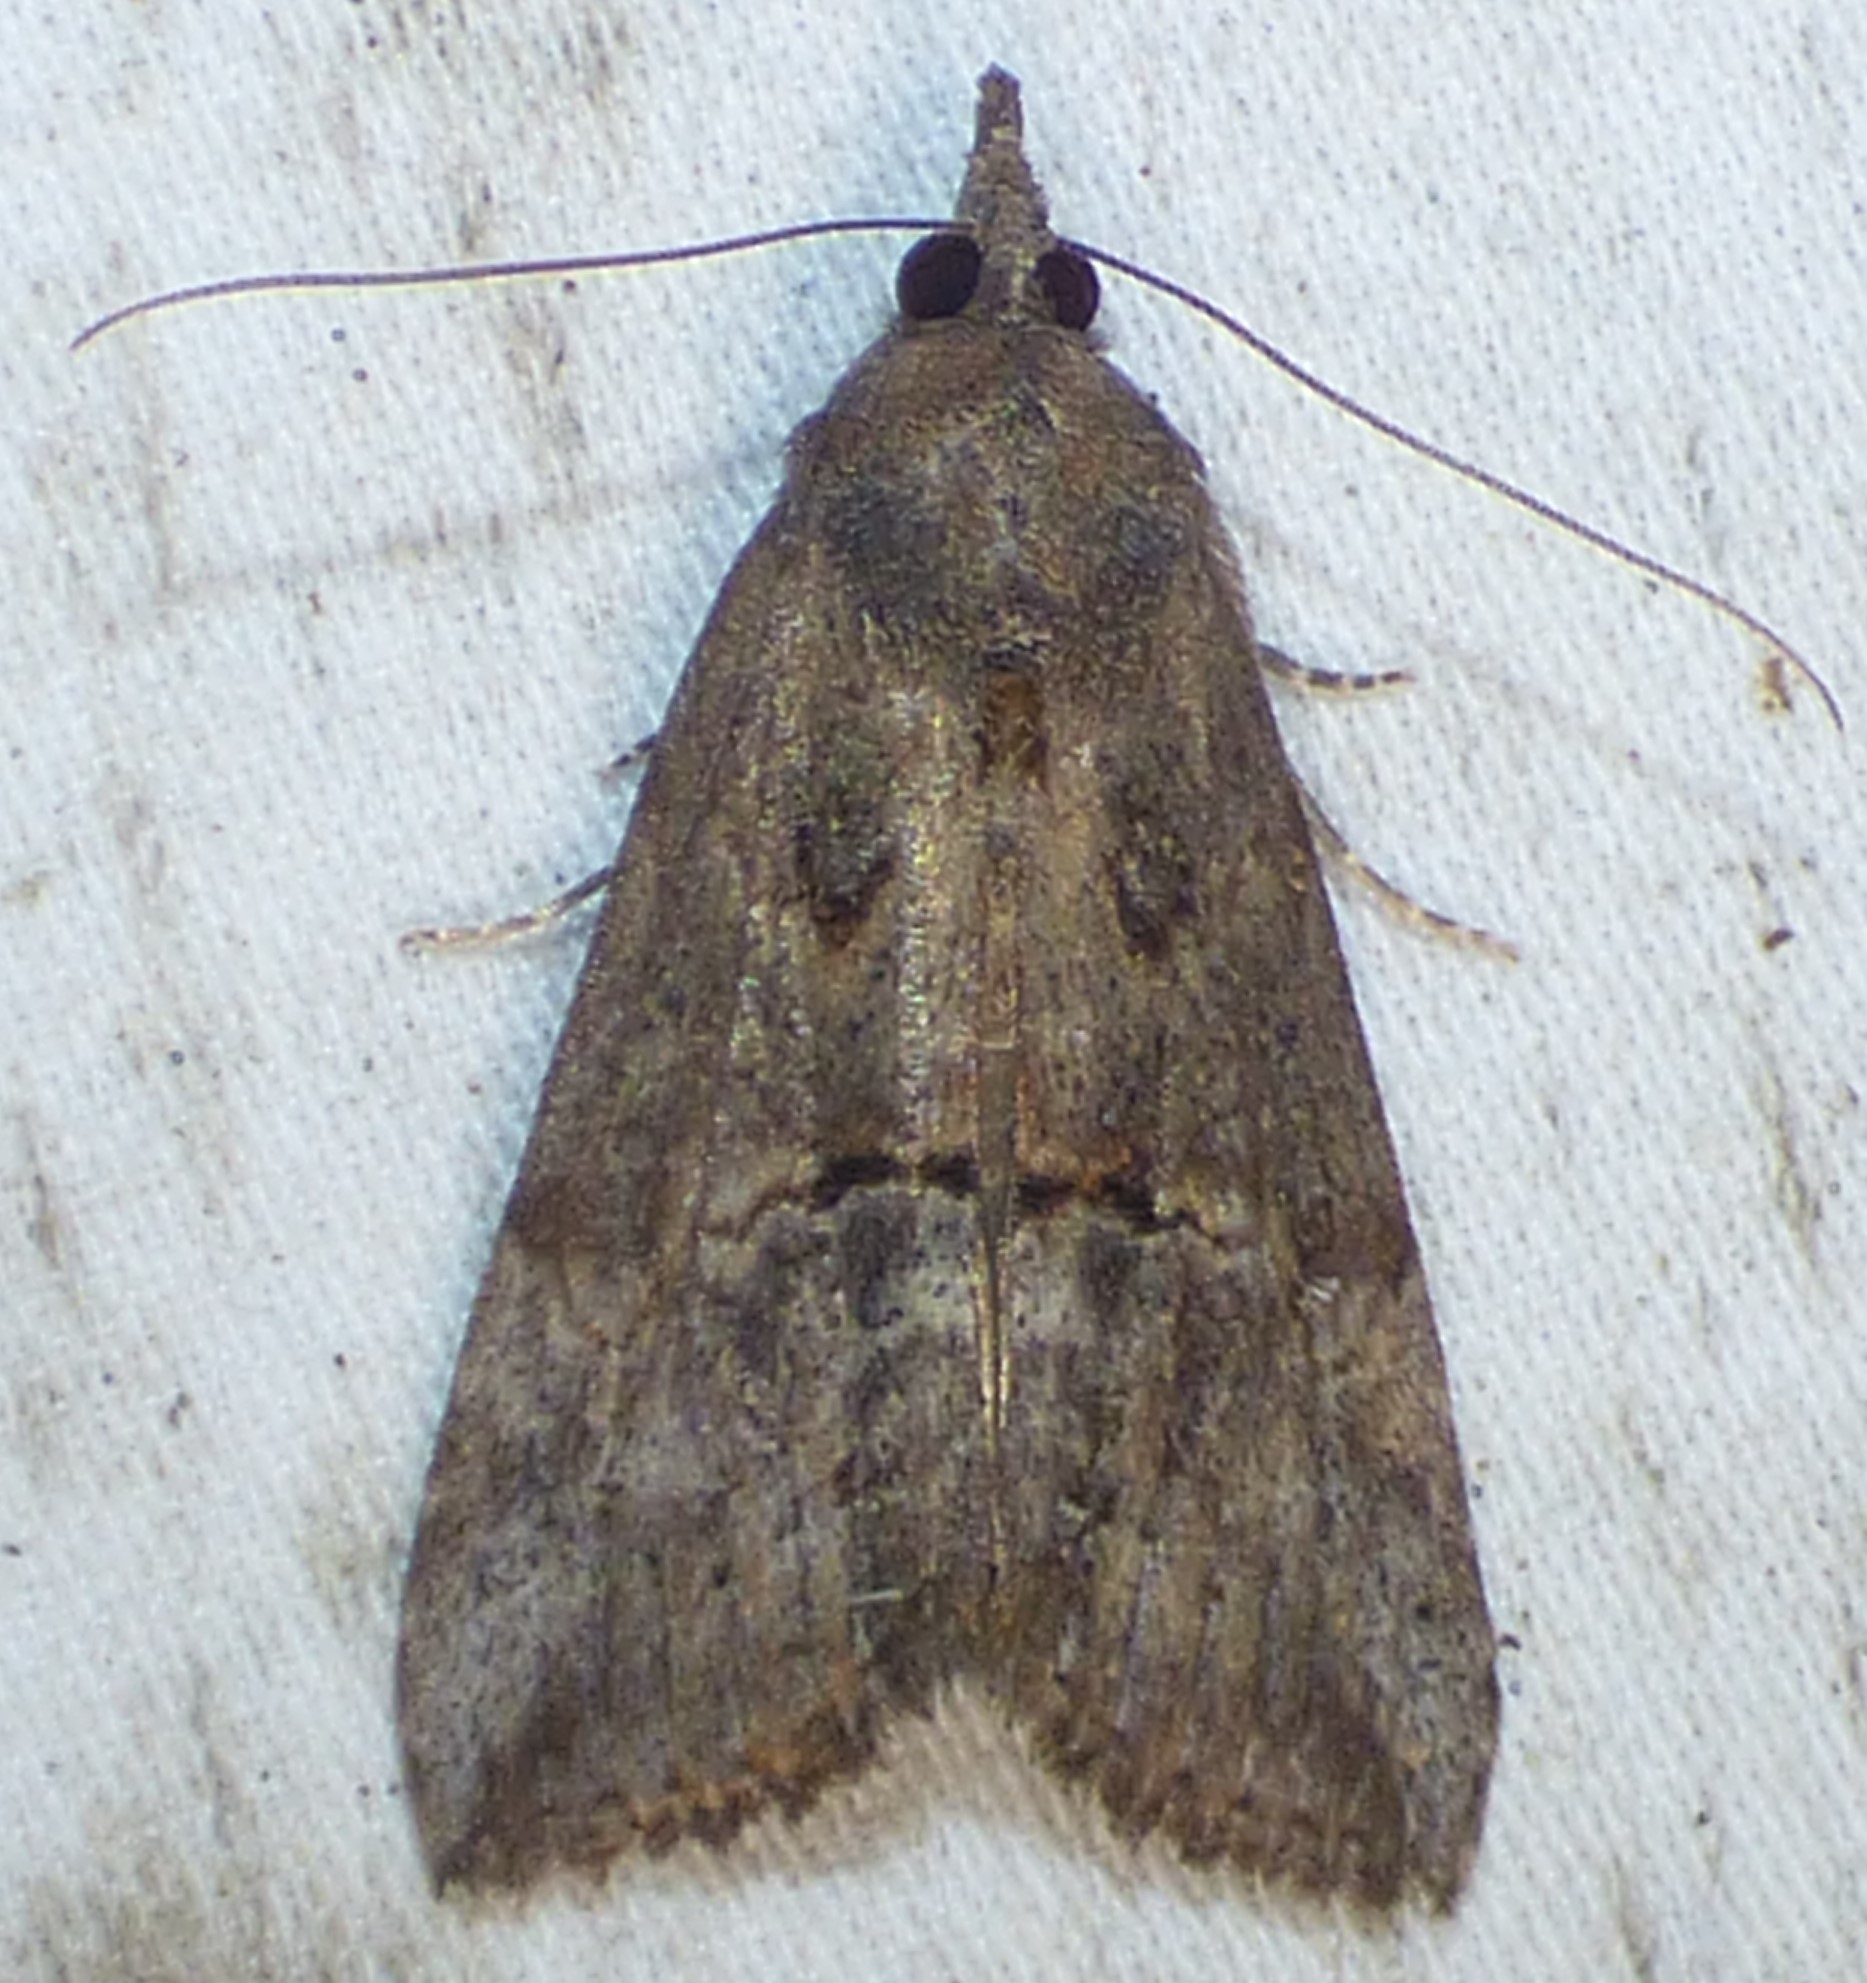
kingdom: Animalia
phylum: Arthropoda
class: Insecta
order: Lepidoptera
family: Erebidae
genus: Hypena
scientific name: Hypena scabra
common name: Green cloverworm
